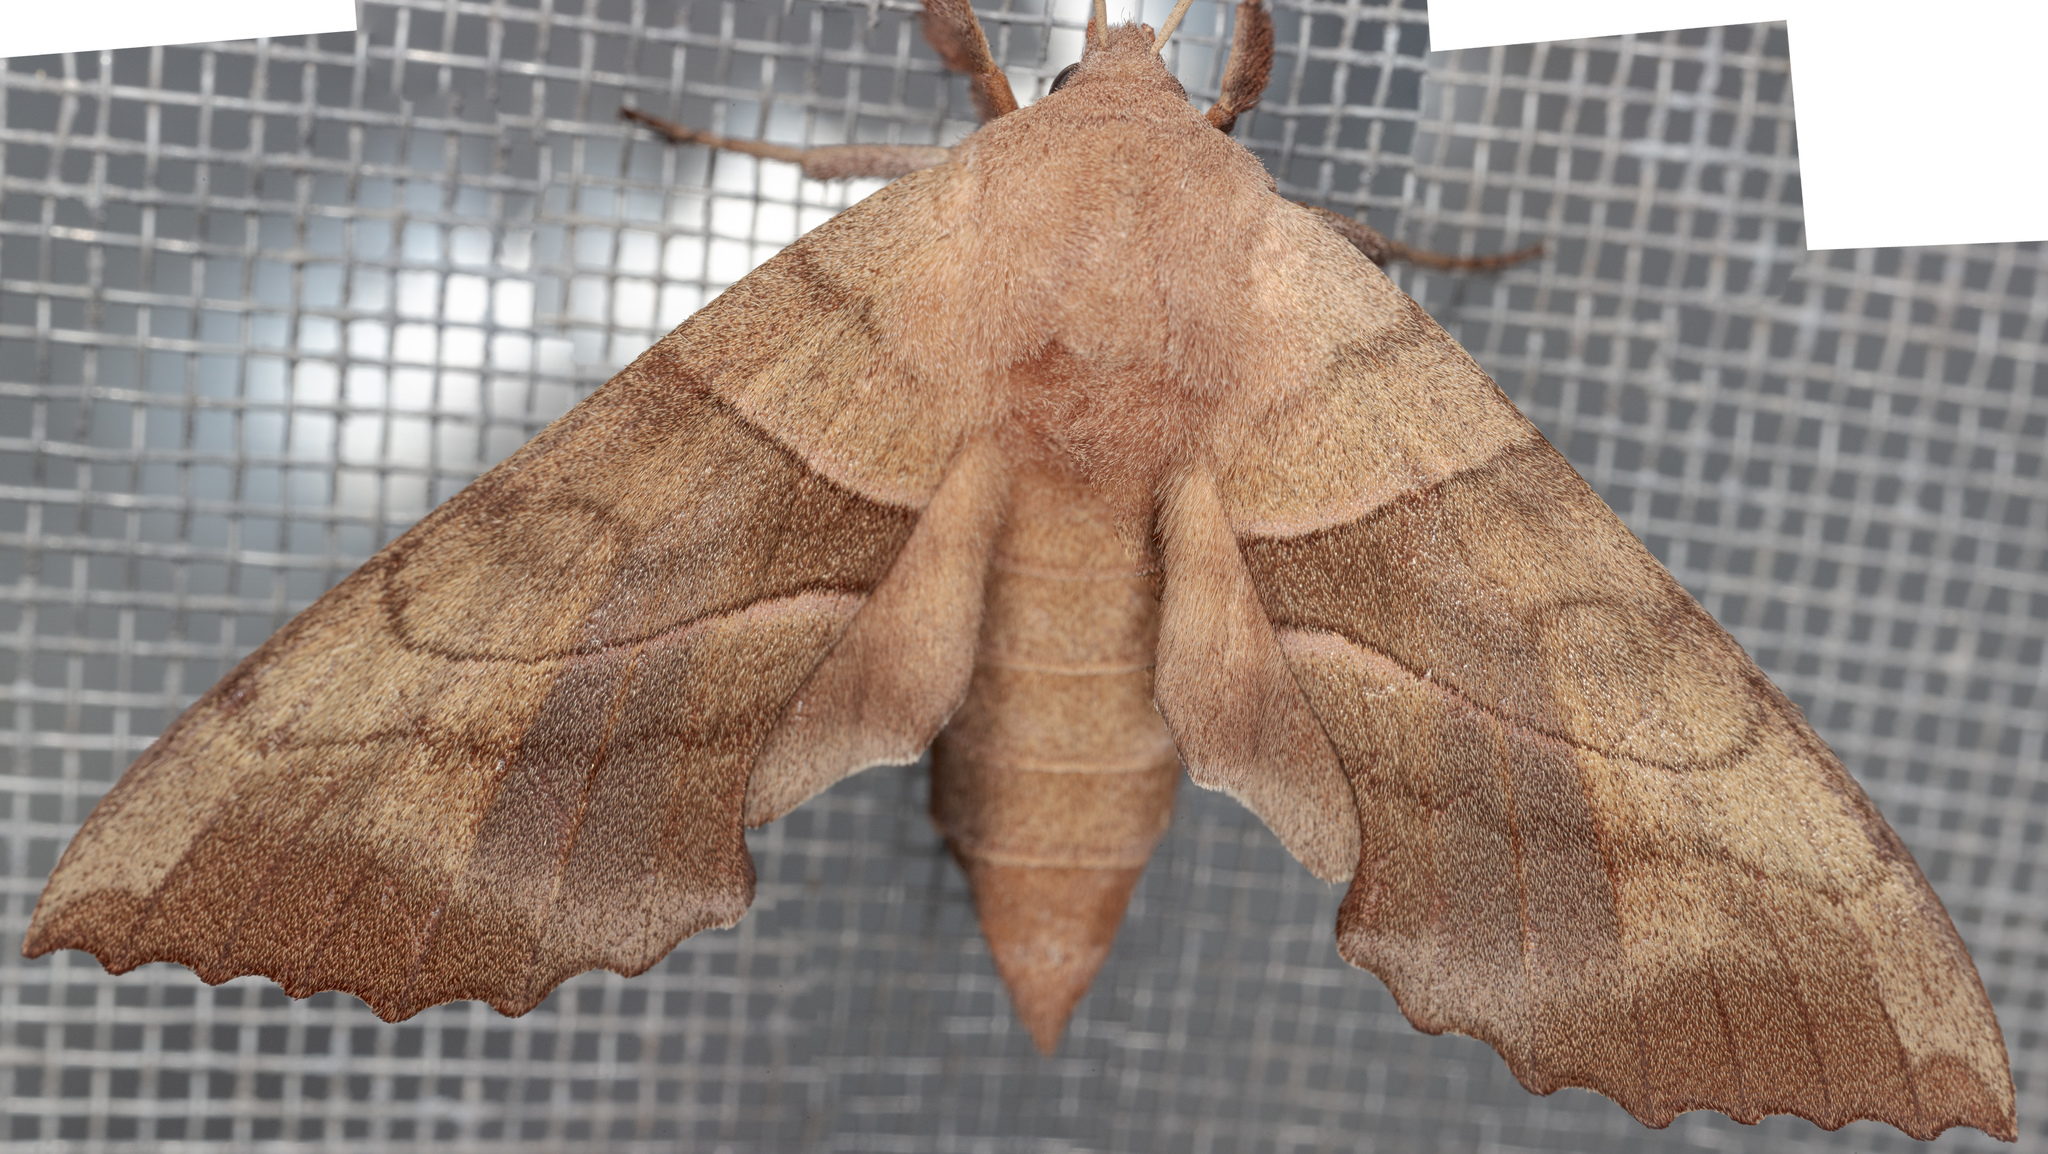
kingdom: Animalia
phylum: Arthropoda
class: Insecta
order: Lepidoptera
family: Sphingidae
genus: Amorpha
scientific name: Amorpha juglandis
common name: Walnut sphinx
